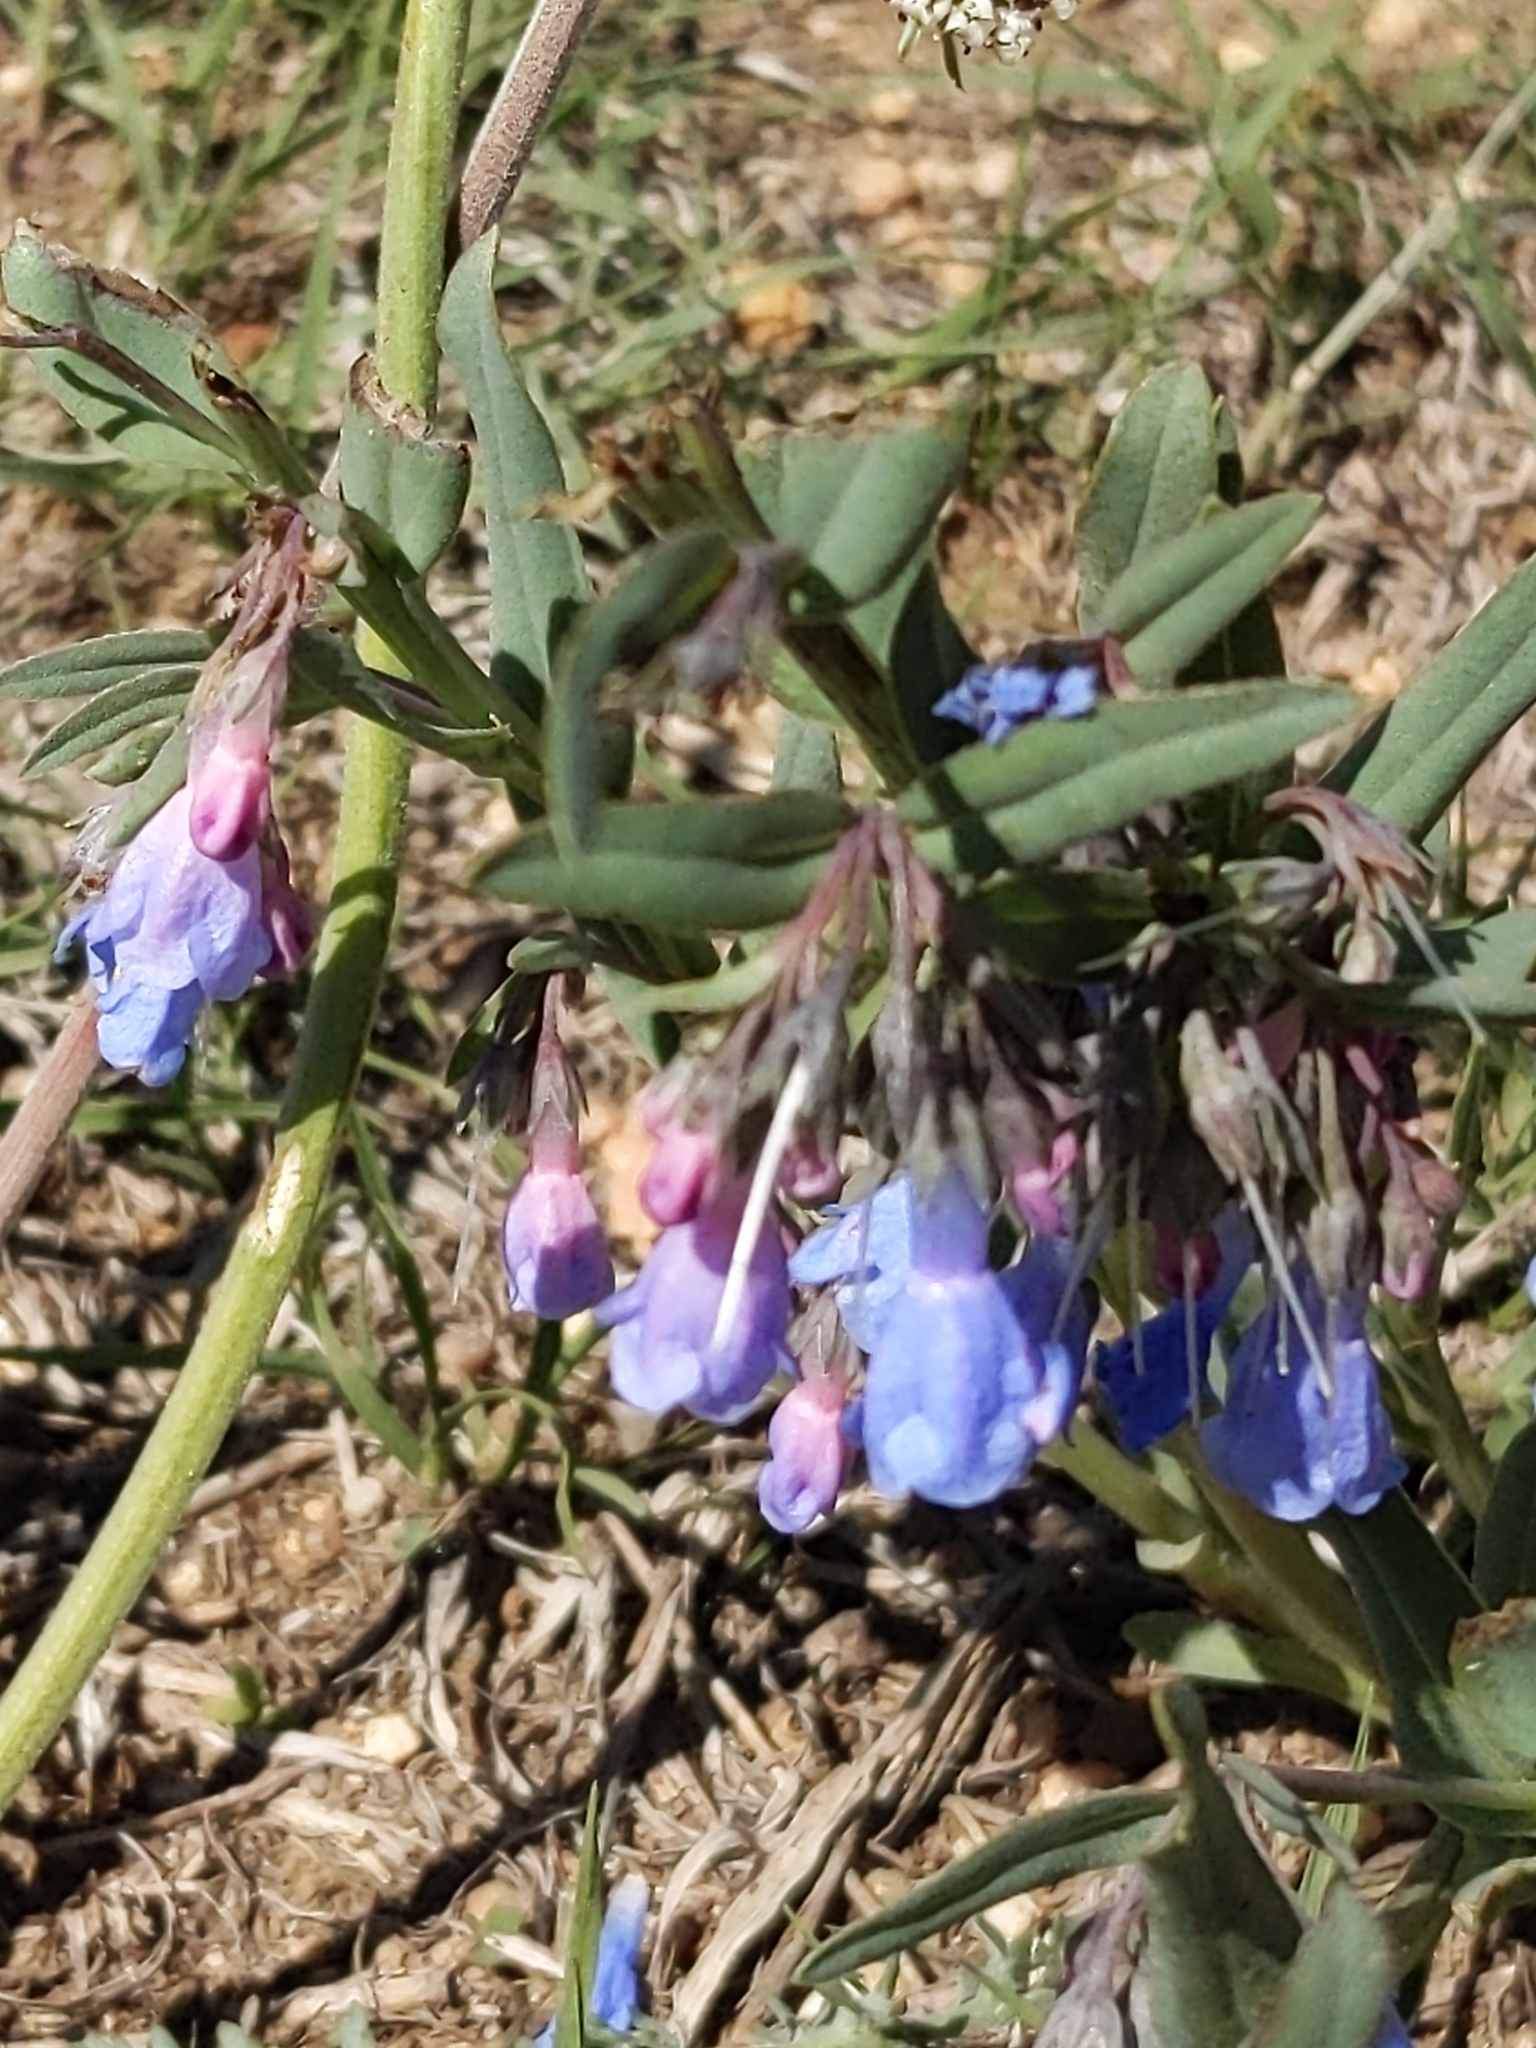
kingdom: Plantae
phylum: Tracheophyta
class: Magnoliopsida
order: Boraginales
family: Boraginaceae
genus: Mertensia
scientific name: Mertensia lanceolata
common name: Lance-leaved bluebells
